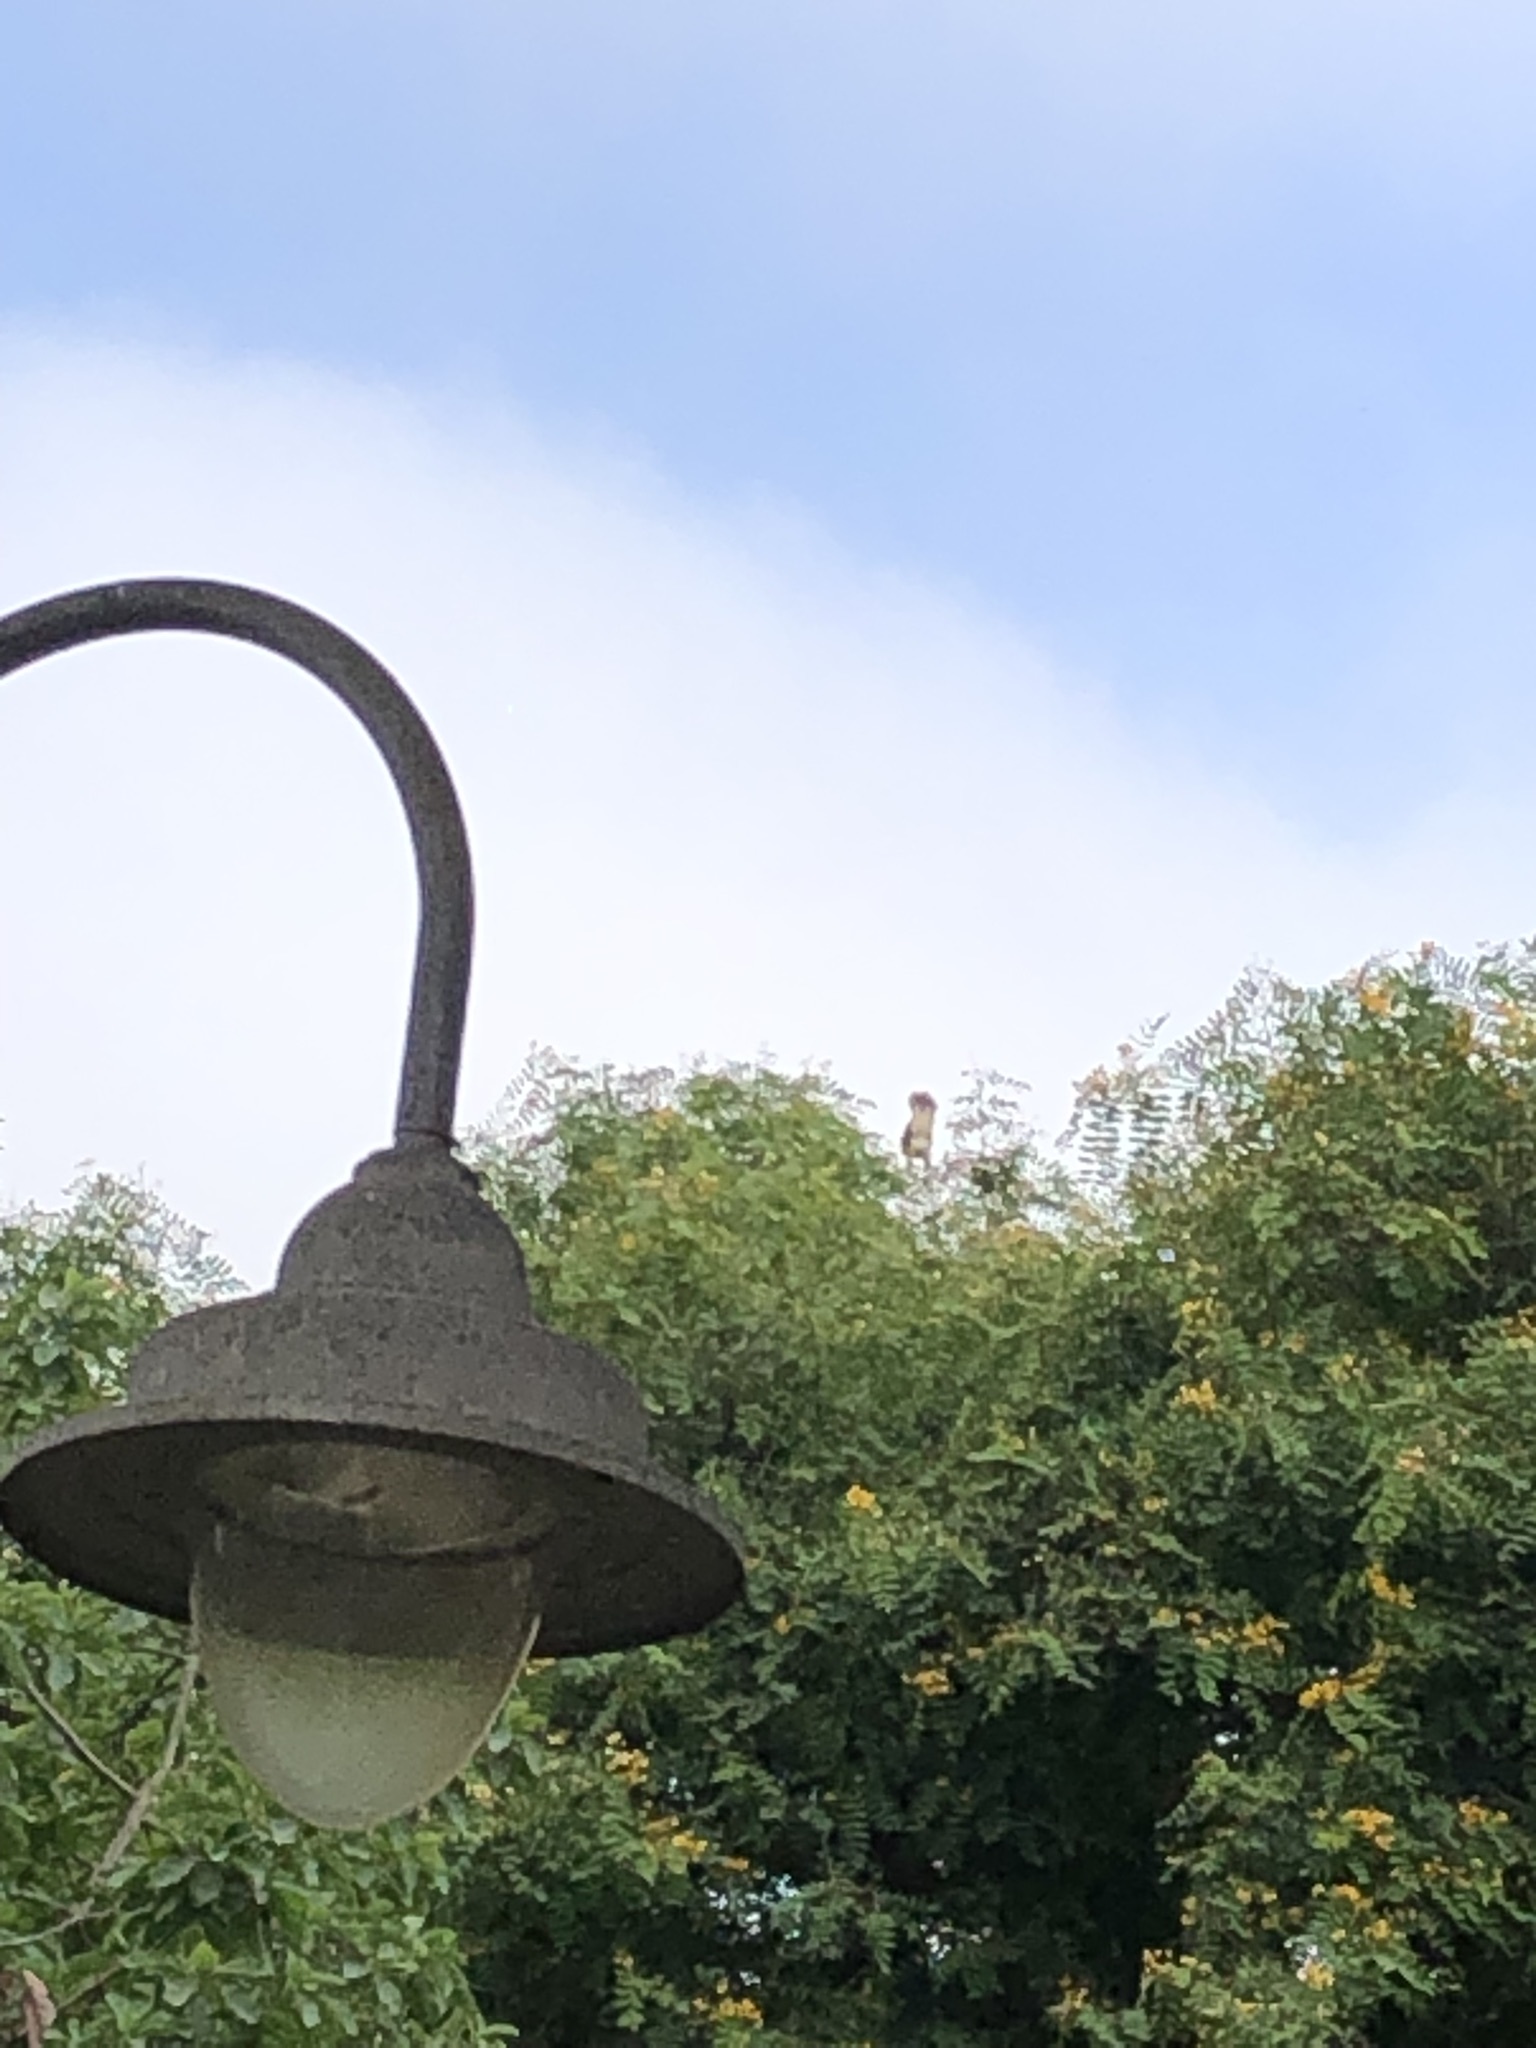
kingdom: Animalia
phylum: Chordata
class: Aves
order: Accipitriformes
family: Accipitridae
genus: Parabuteo
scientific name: Parabuteo unicinctus
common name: Harris's hawk
